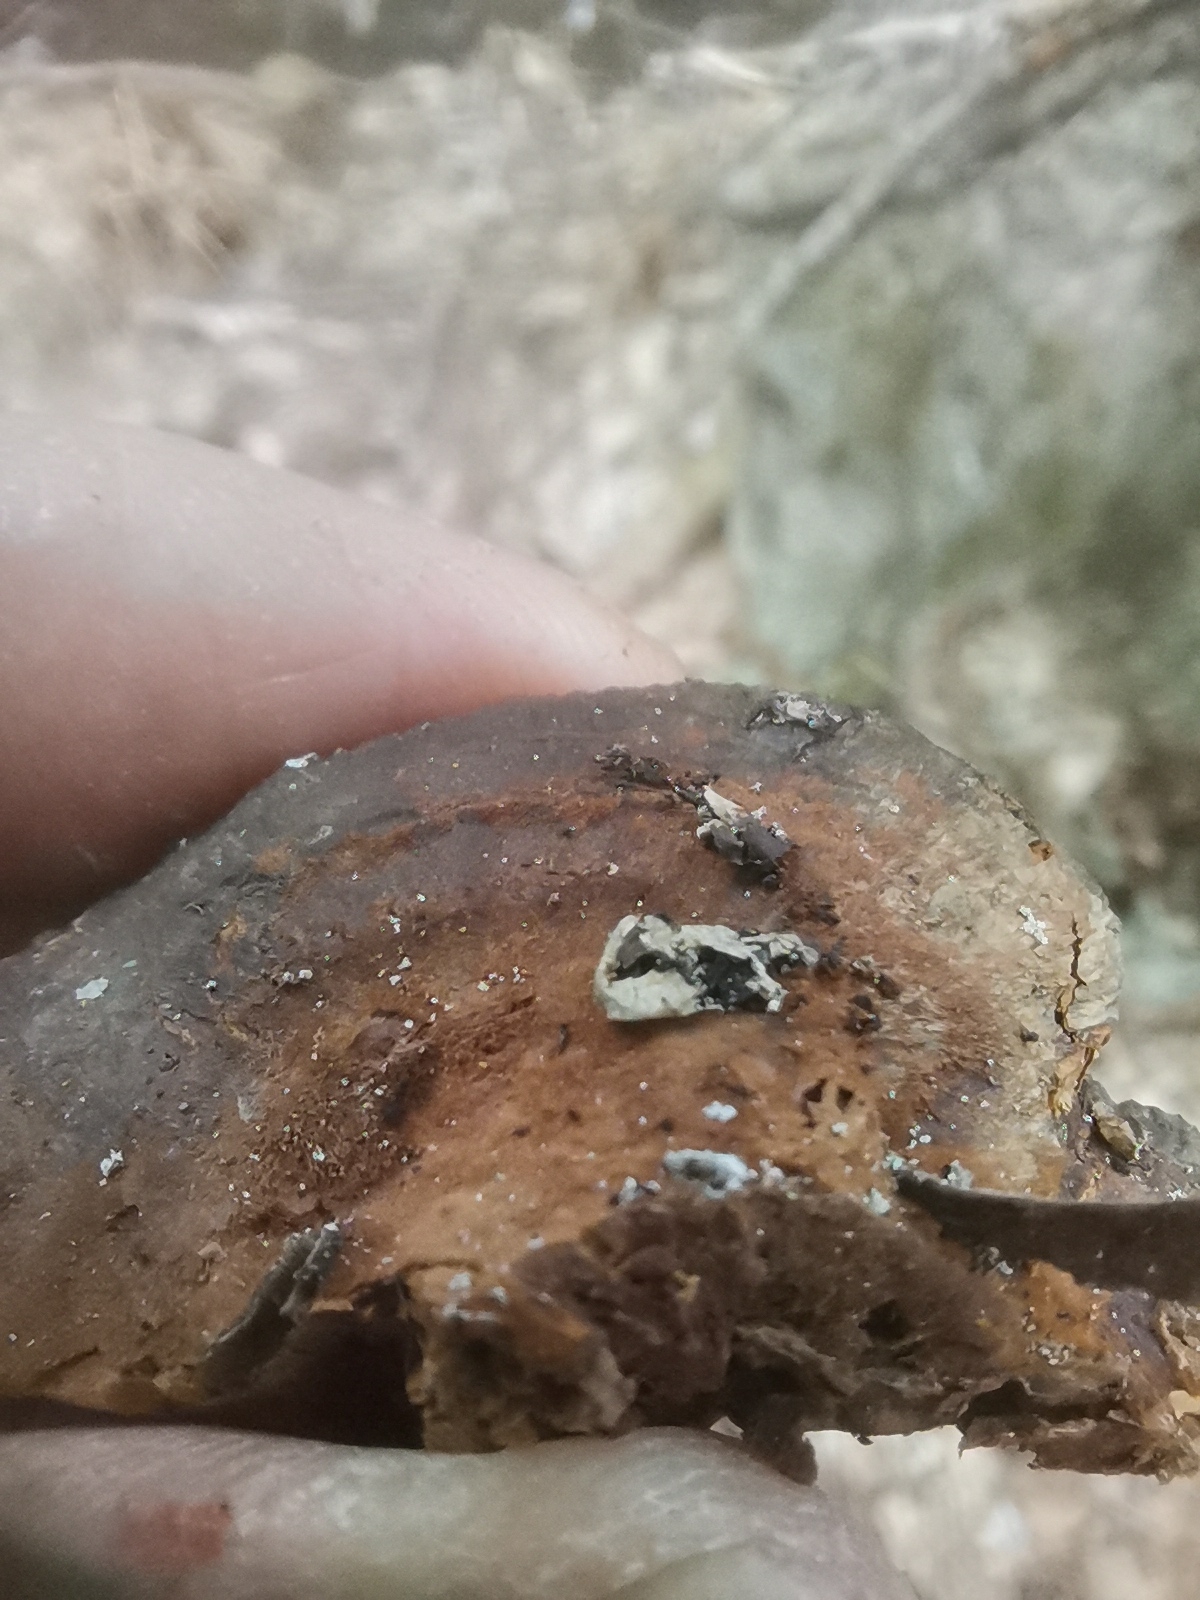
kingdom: Fungi
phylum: Basidiomycota
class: Agaricomycetes
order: Hymenochaetales
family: Hymenochaetaceae
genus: Xanthoporia
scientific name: Xanthoporia radiata
